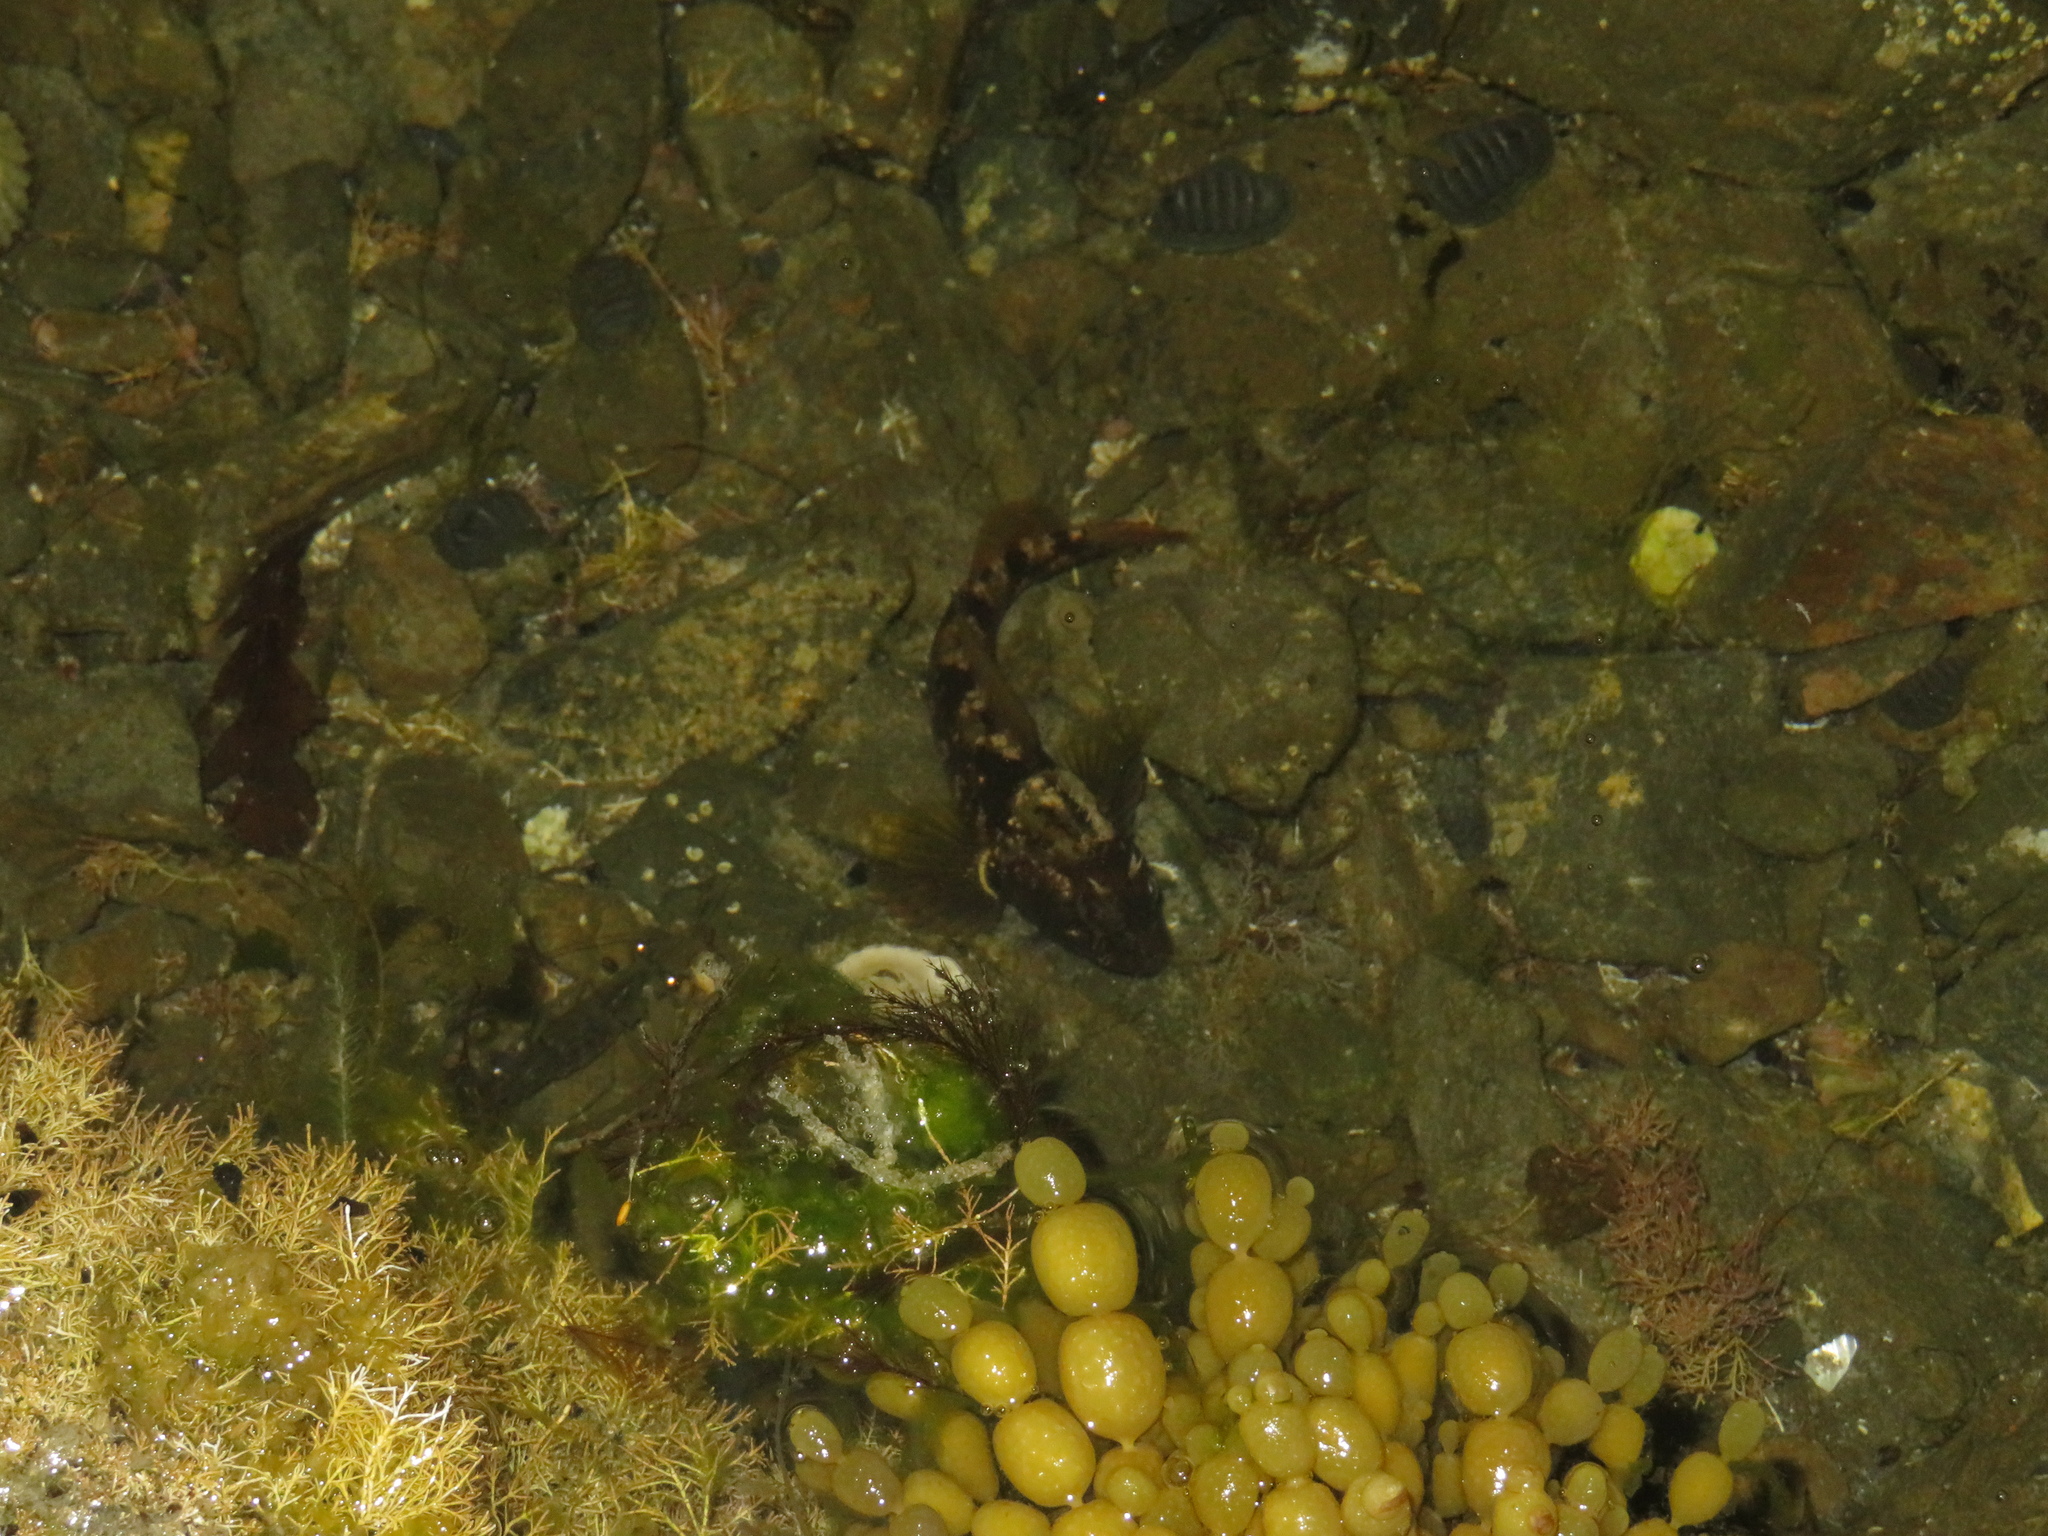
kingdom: Animalia
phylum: Chordata
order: Perciformes
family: Tripterygiidae
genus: Forsterygion
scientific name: Forsterygion capito
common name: Spotted robust triplefin
